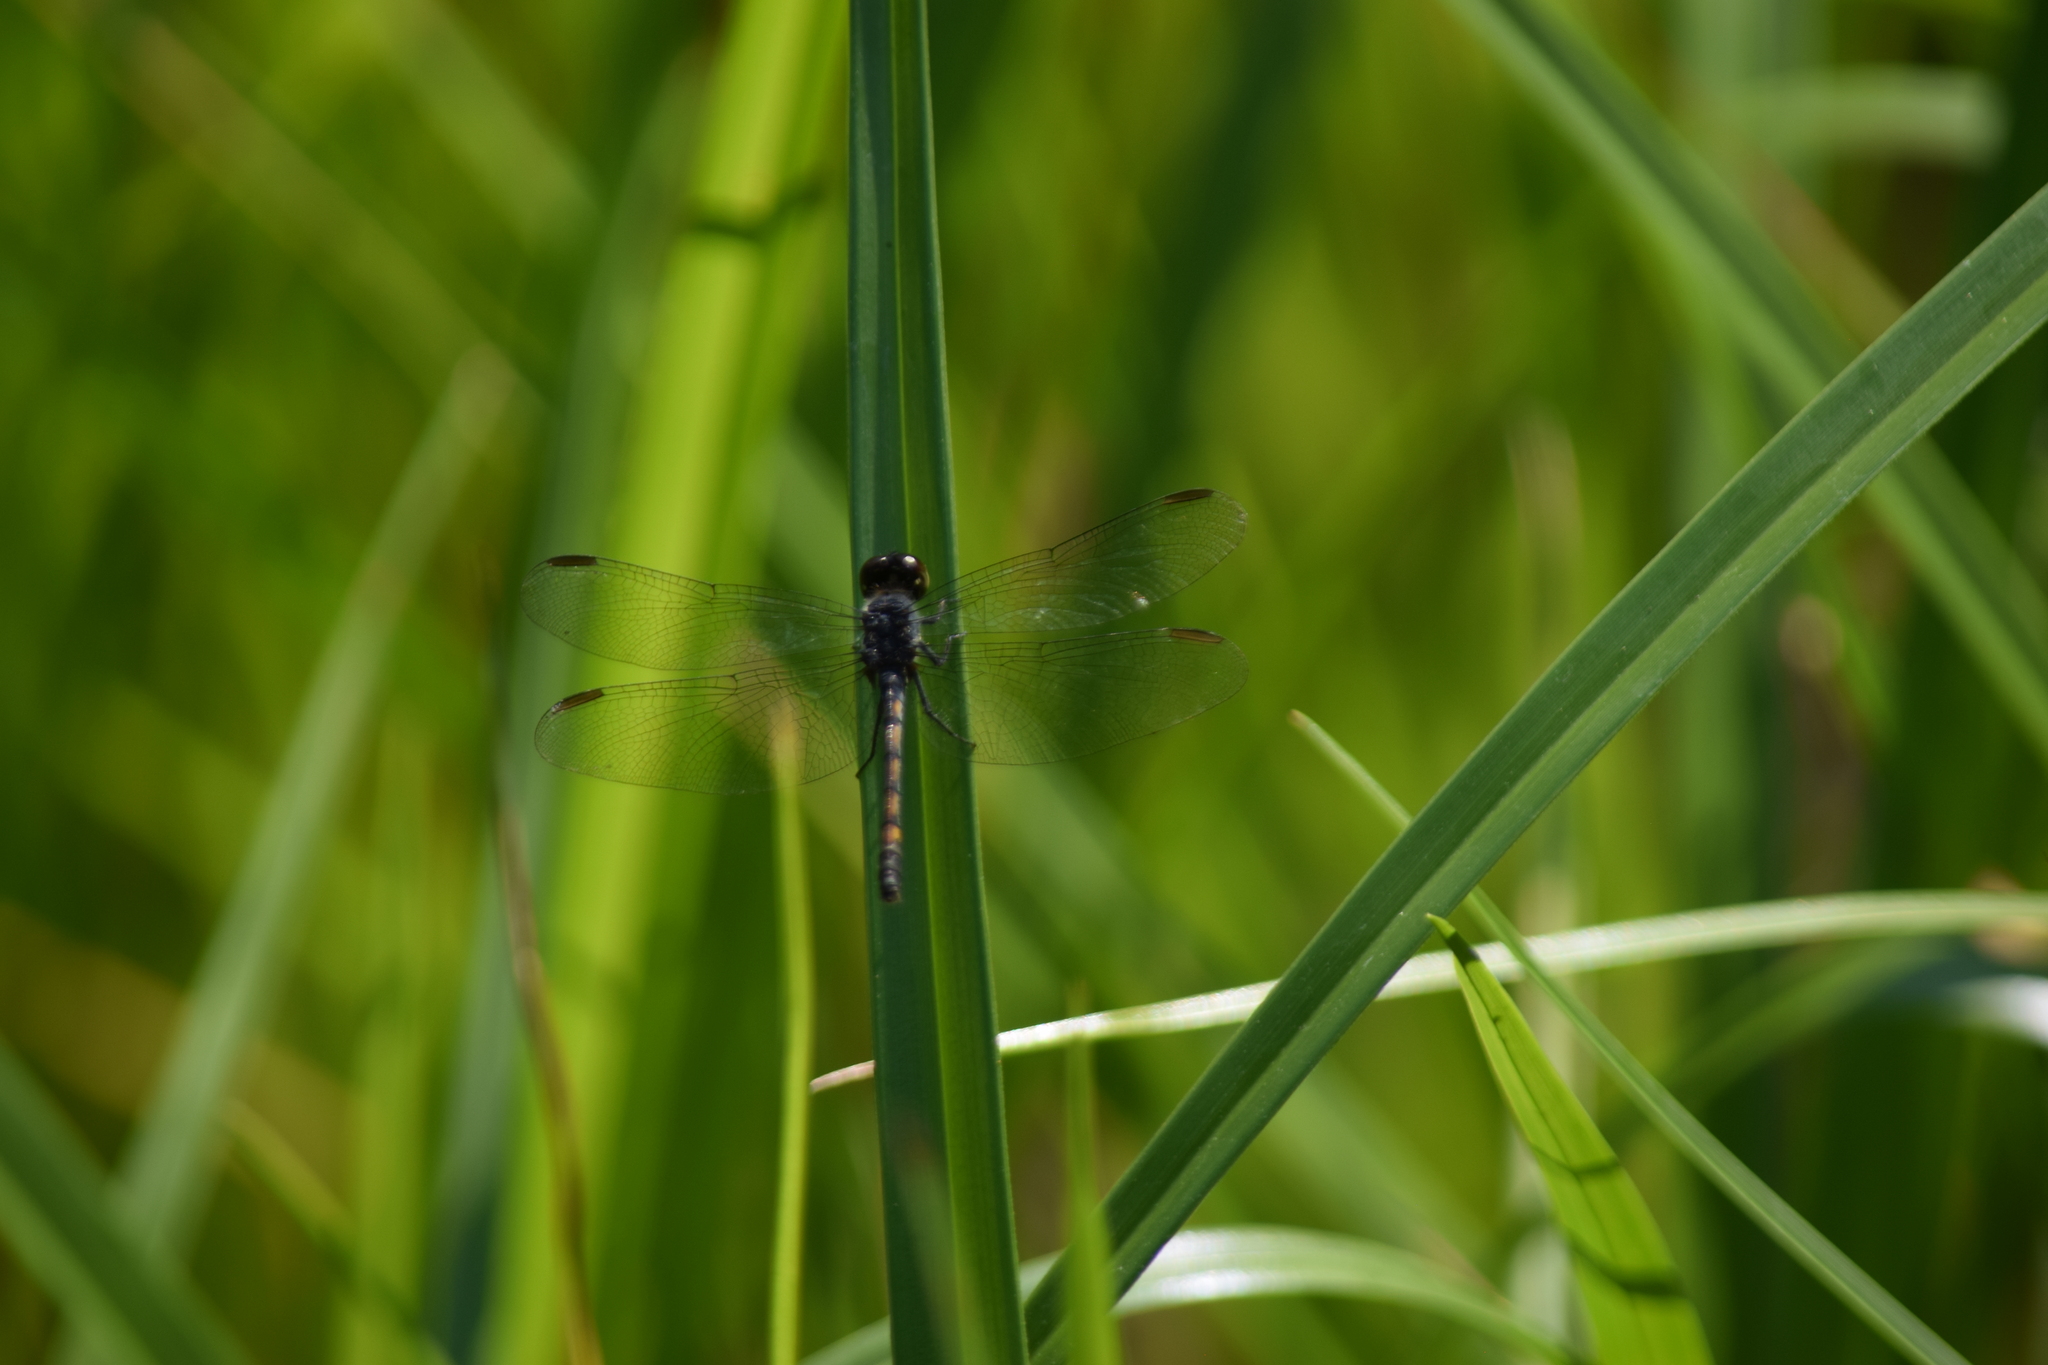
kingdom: Animalia
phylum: Arthropoda
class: Insecta
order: Odonata
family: Libellulidae
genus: Erythrodiplax
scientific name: Erythrodiplax berenice
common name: Seaside dragonlet
